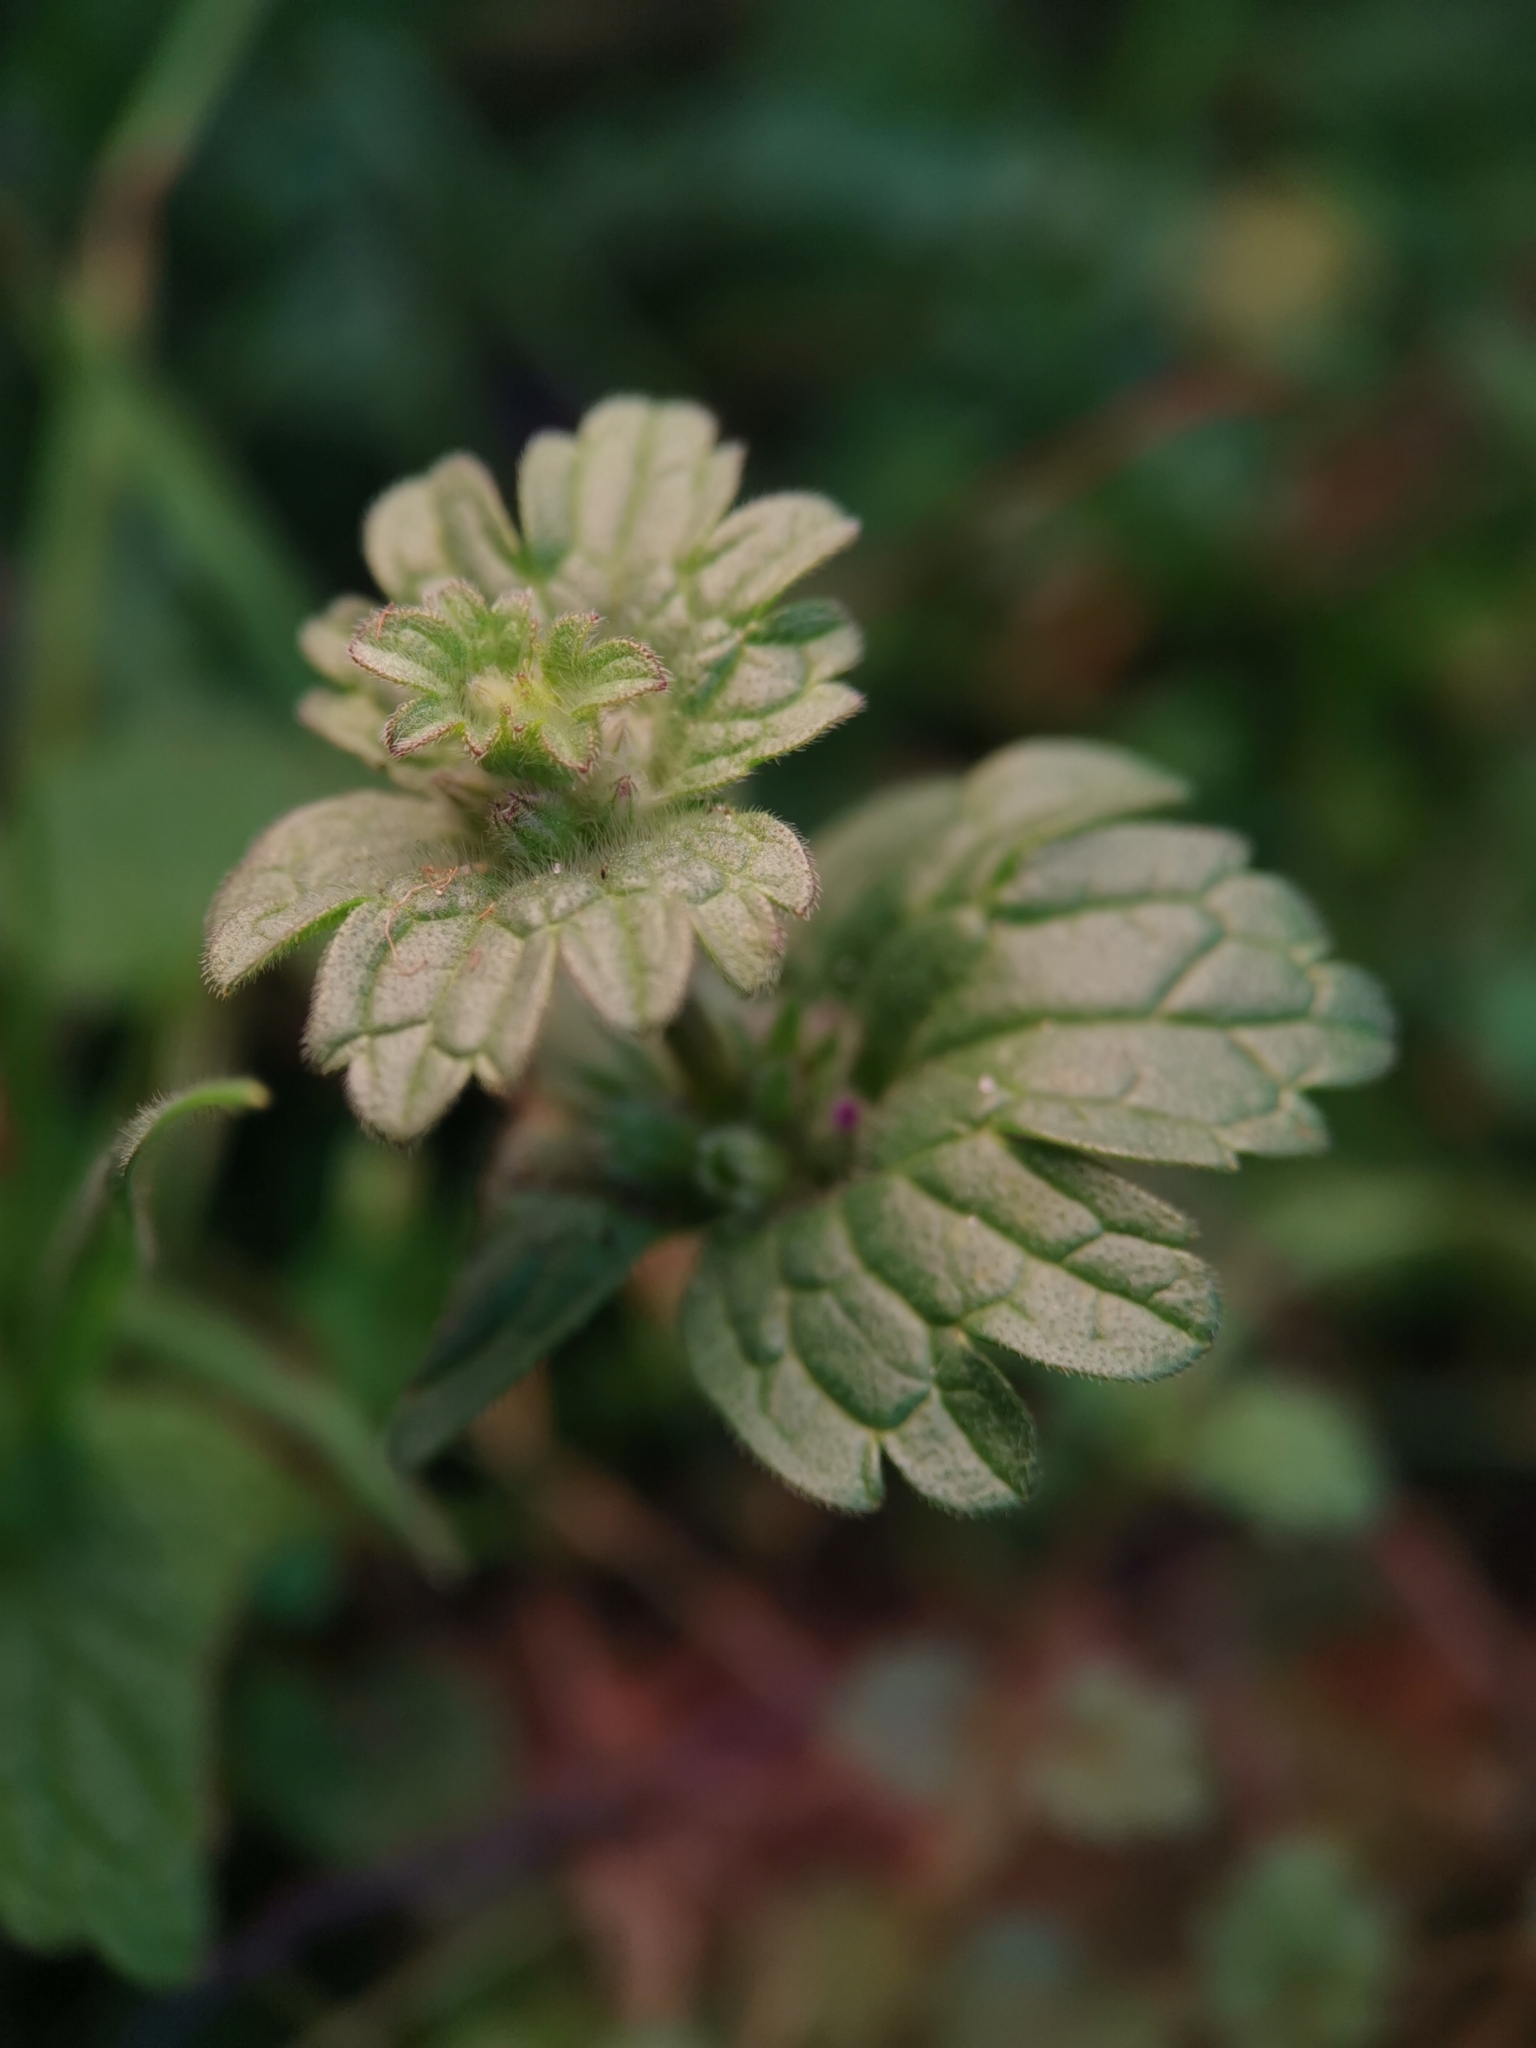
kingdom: Plantae
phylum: Tracheophyta
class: Magnoliopsida
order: Lamiales
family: Lamiaceae
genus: Lamium
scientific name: Lamium amplexicaule
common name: Henbit dead-nettle
